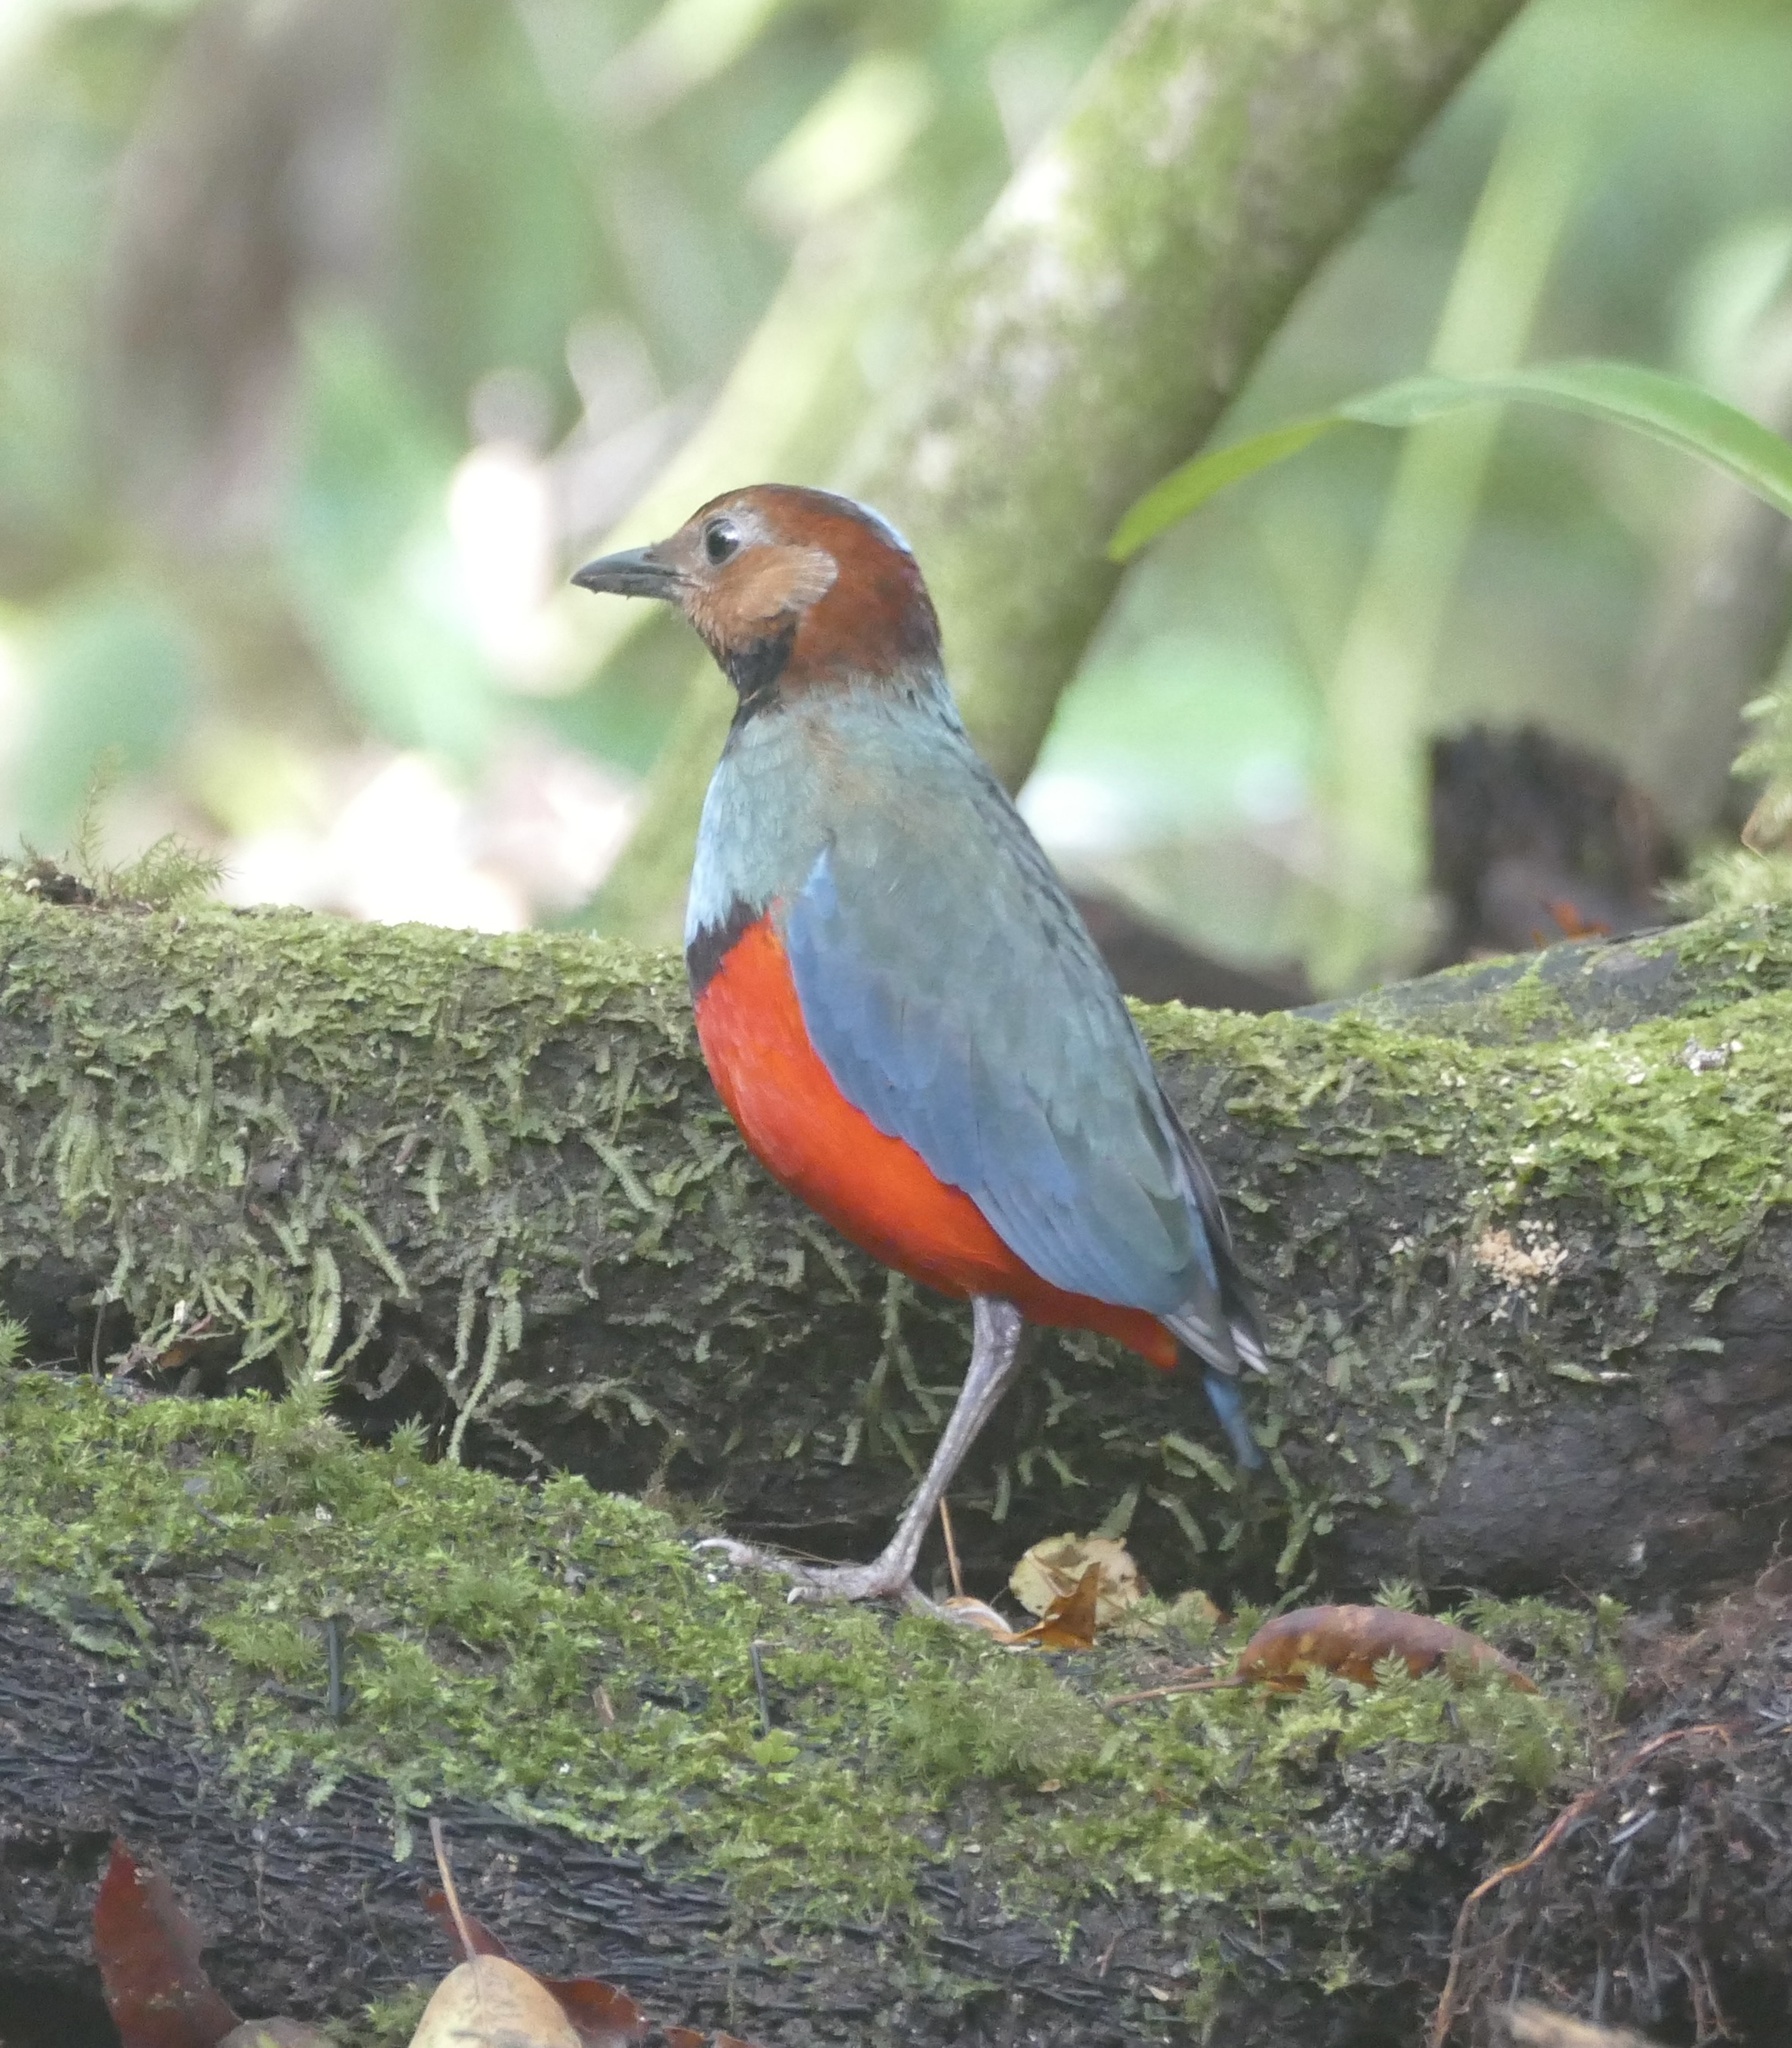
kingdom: Animalia
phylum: Chordata
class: Aves
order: Passeriformes
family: Pittidae
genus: Pitta
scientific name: Pitta erythrogaster
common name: Red-bellied pitta
